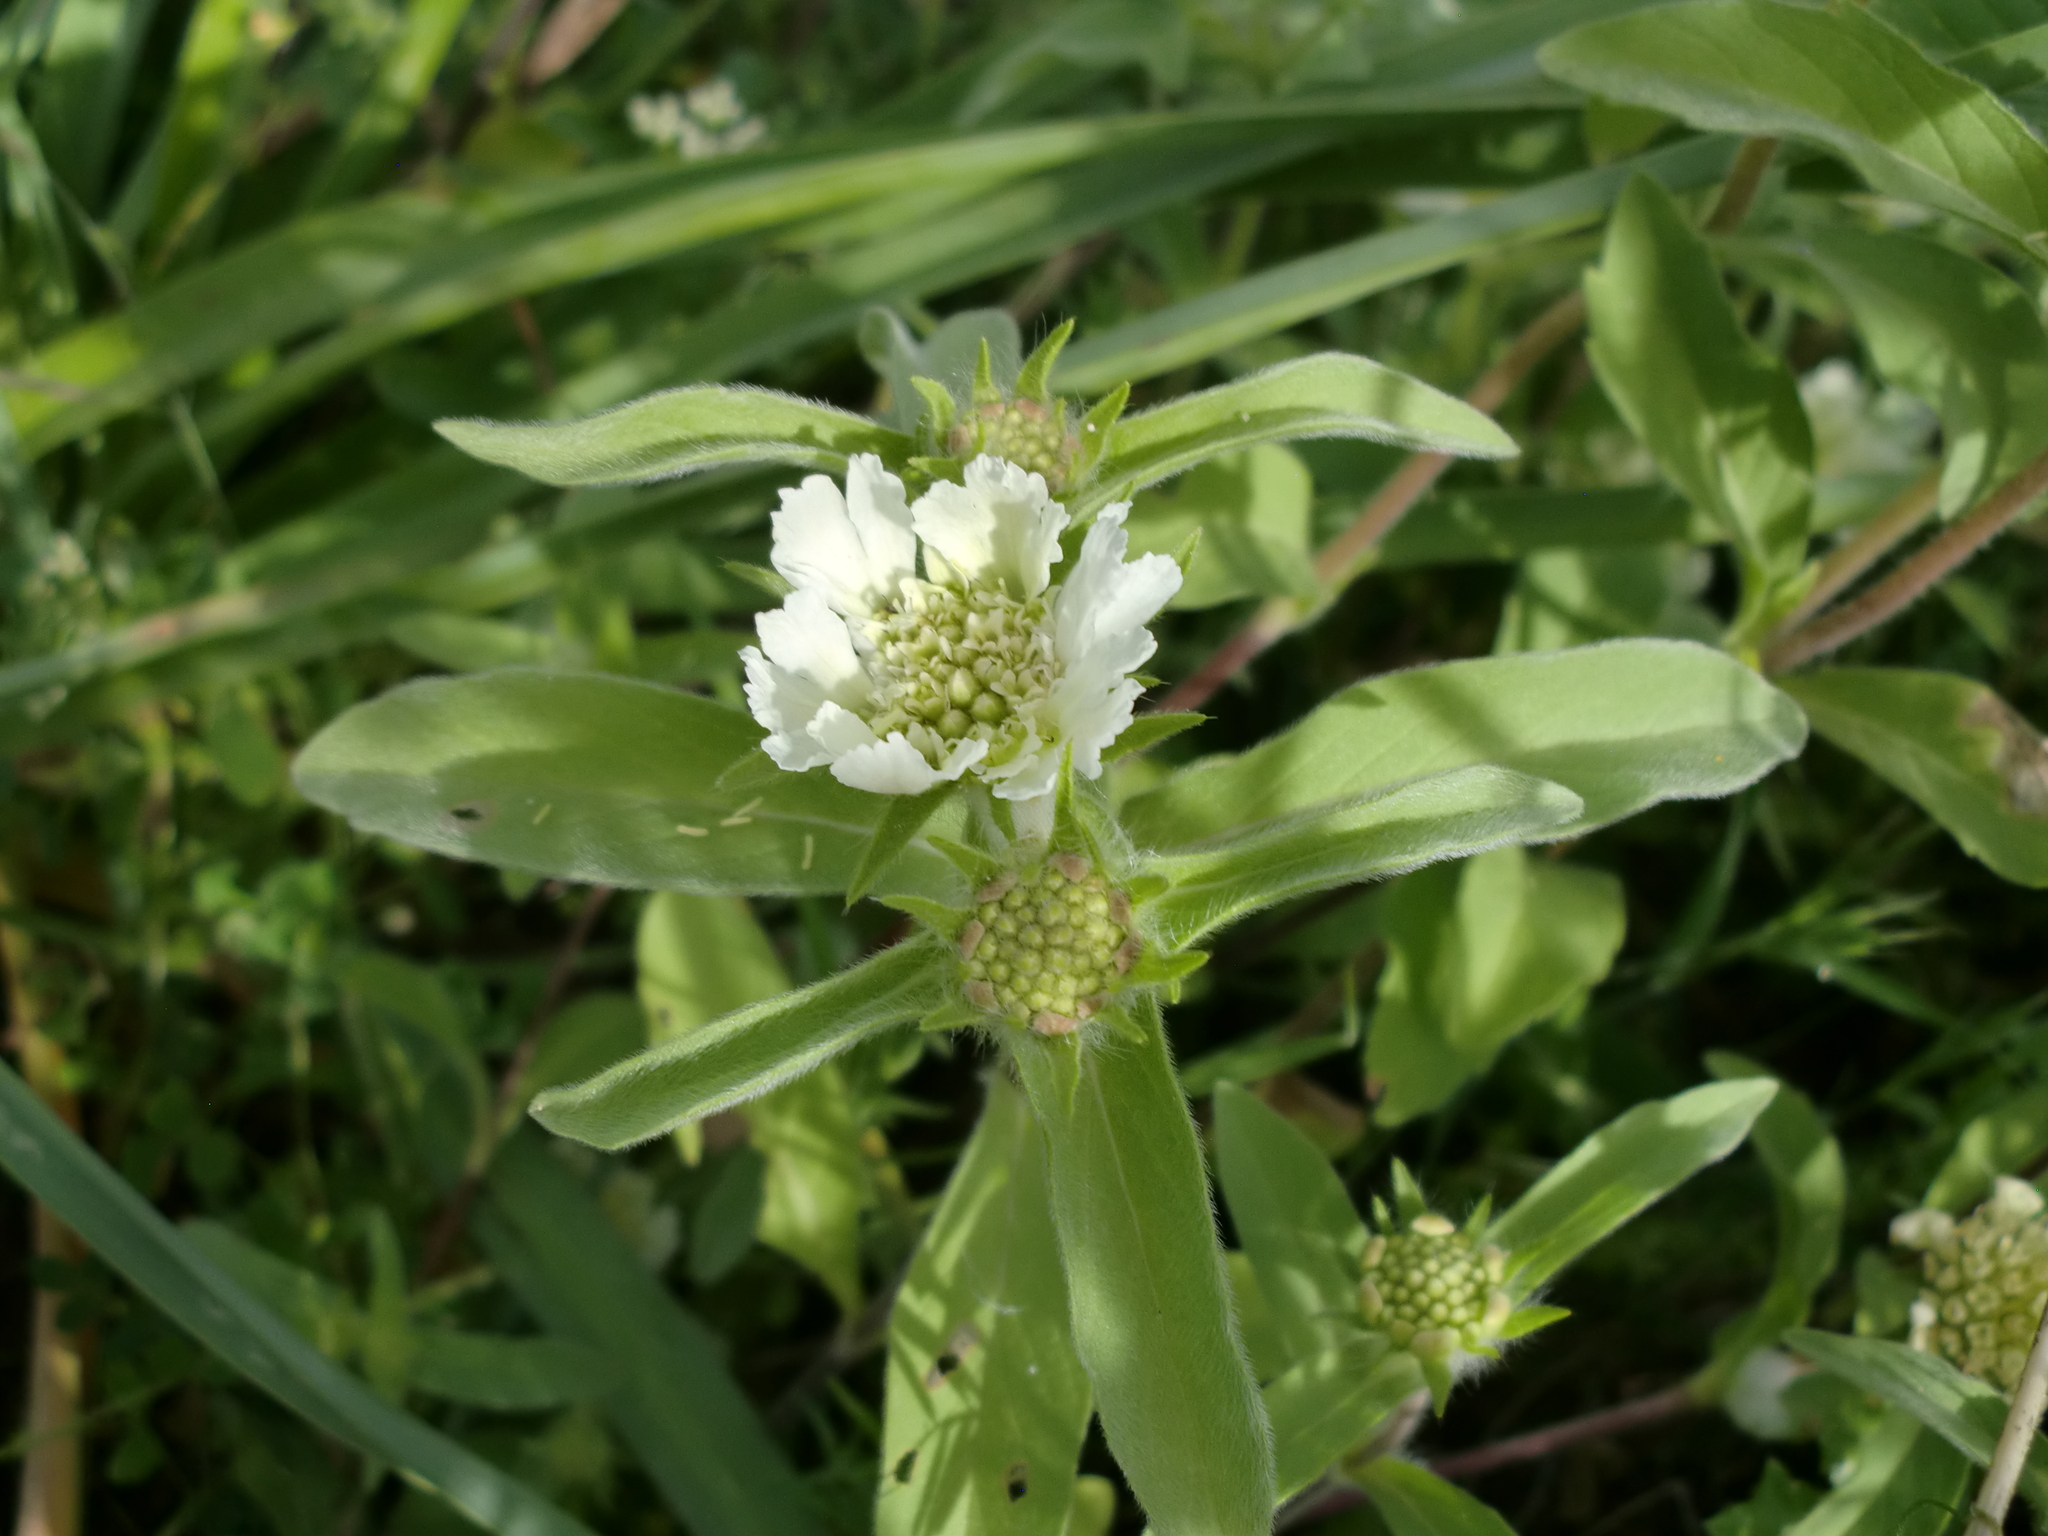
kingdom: Plantae
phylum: Tracheophyta
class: Magnoliopsida
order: Dipsacales
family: Caprifoliaceae
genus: Lomelosia
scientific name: Lomelosia prolifera
